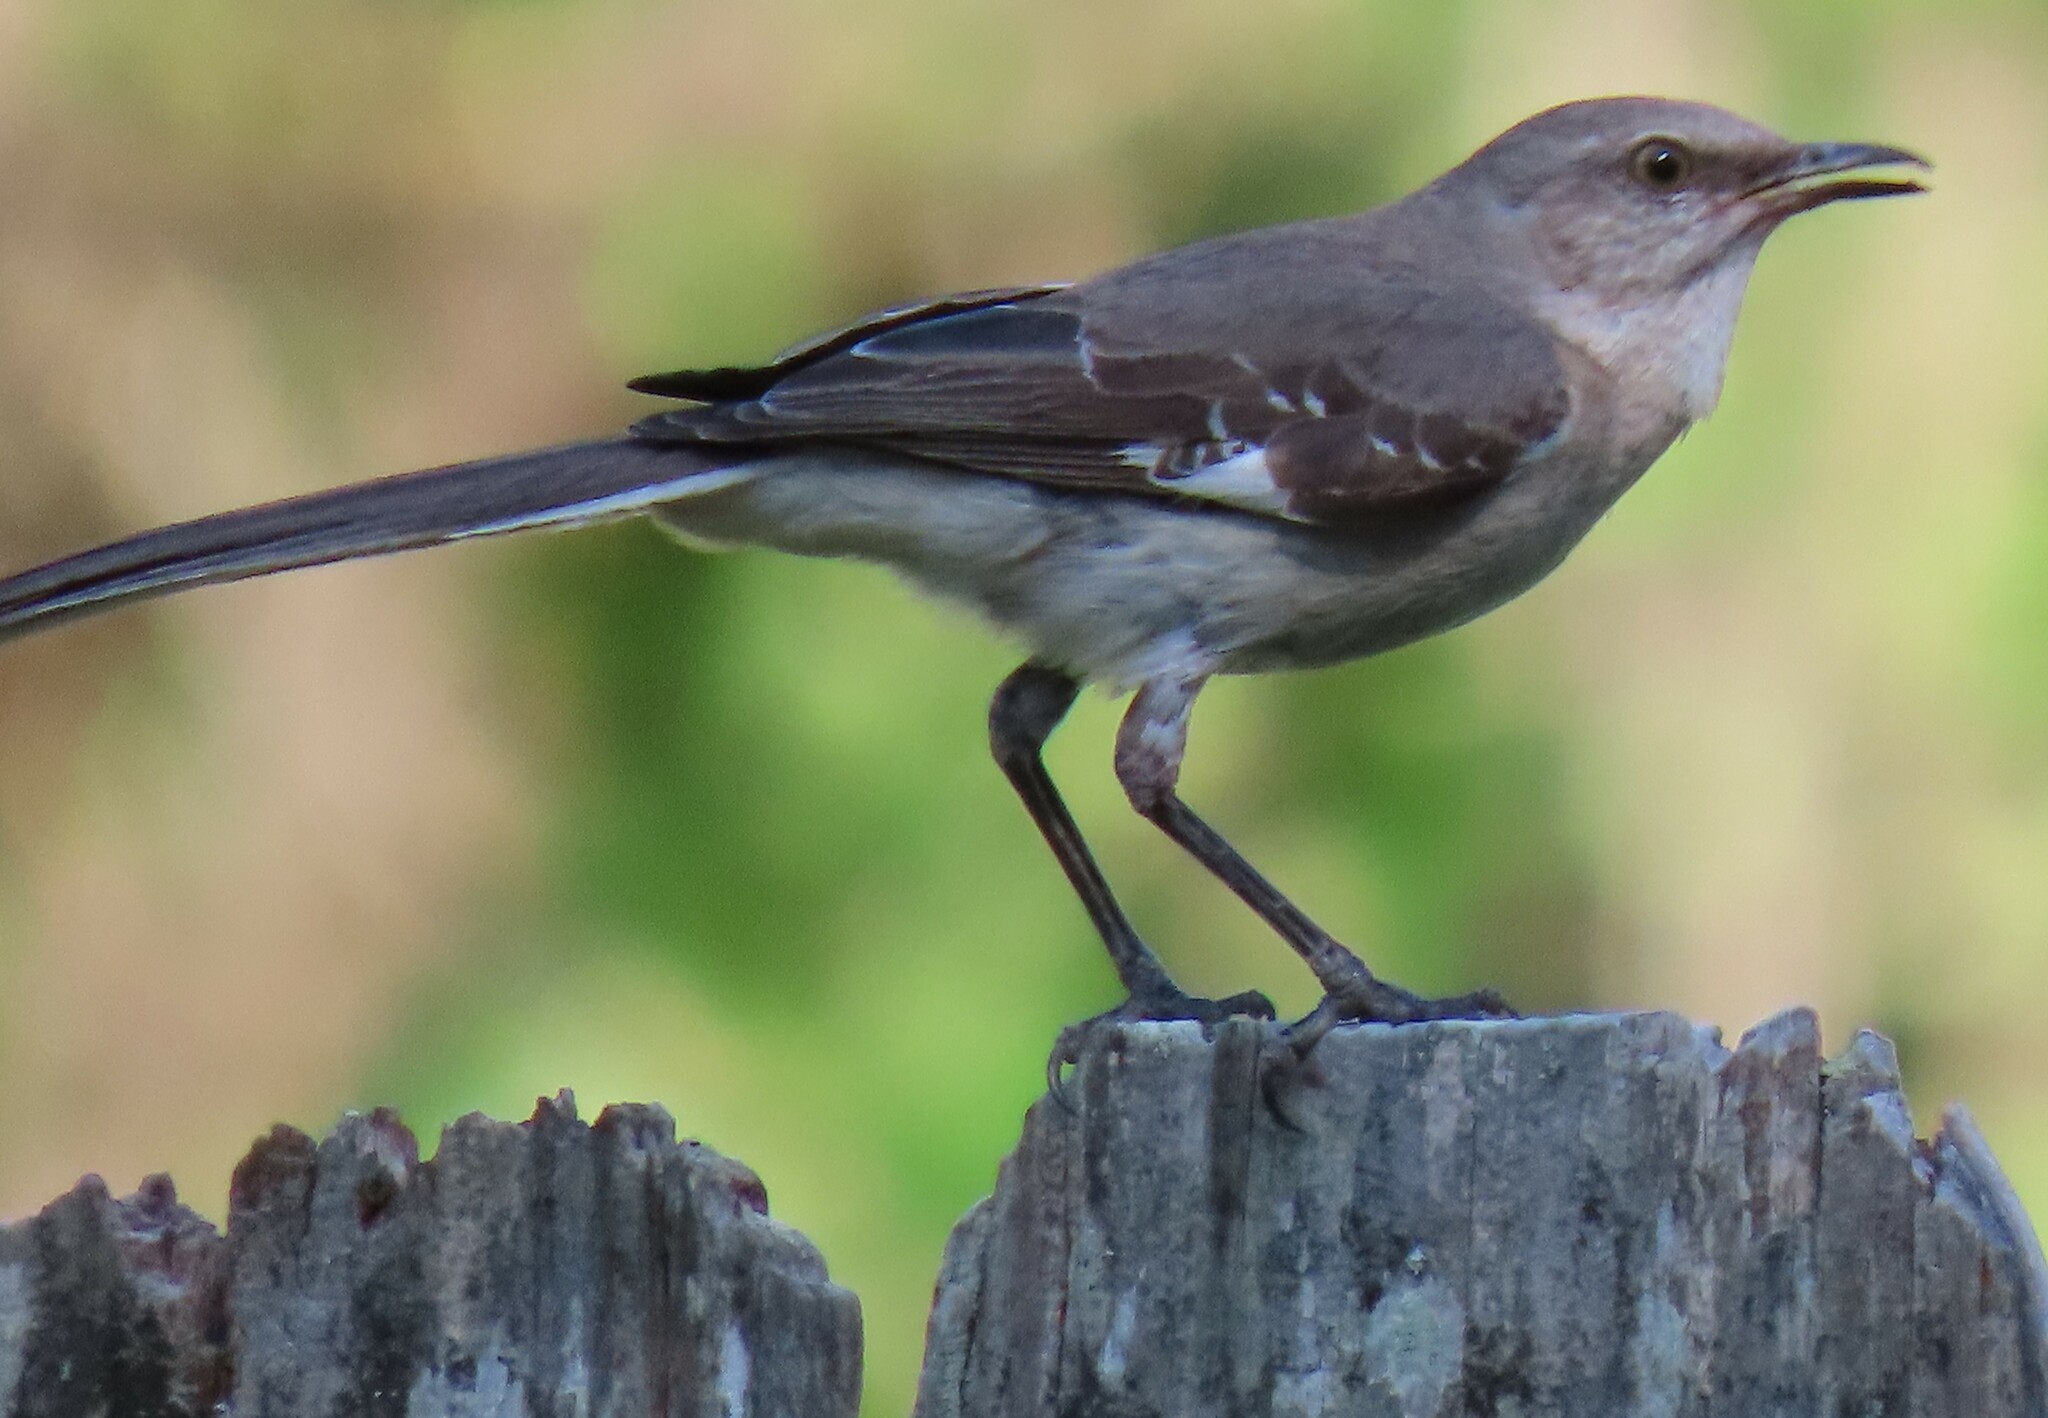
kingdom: Animalia
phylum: Chordata
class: Aves
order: Passeriformes
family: Mimidae
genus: Mimus
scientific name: Mimus polyglottos
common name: Northern mockingbird
